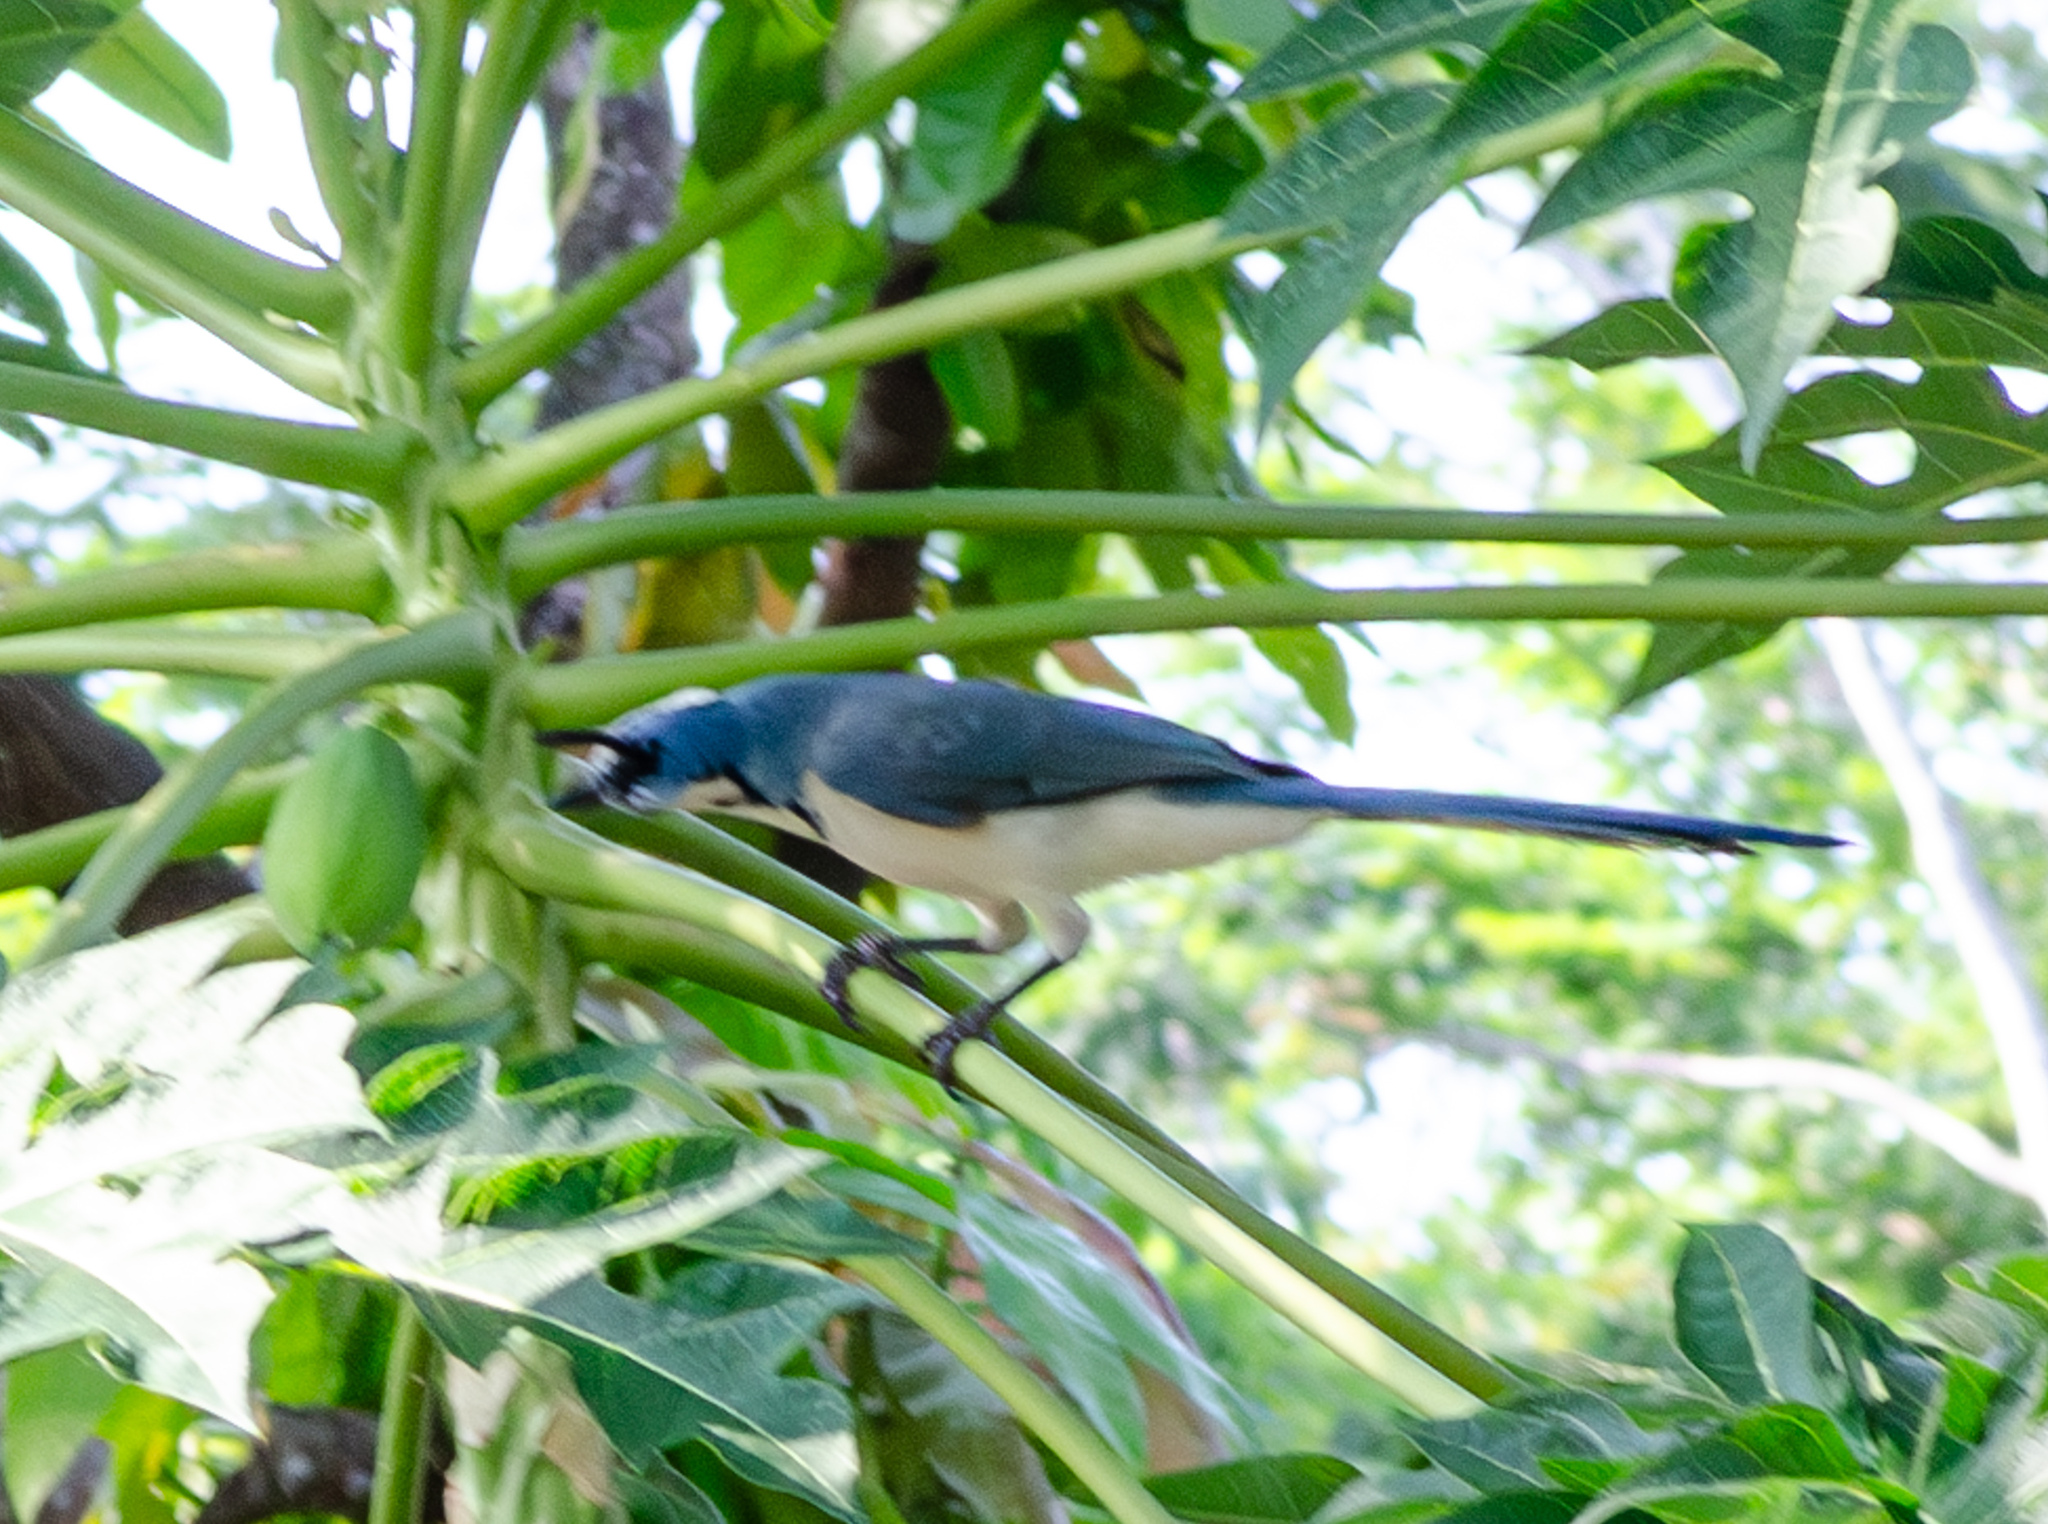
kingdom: Animalia
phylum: Chordata
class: Aves
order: Passeriformes
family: Corvidae
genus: Calocitta
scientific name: Calocitta formosa
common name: White-throated magpie-jay
